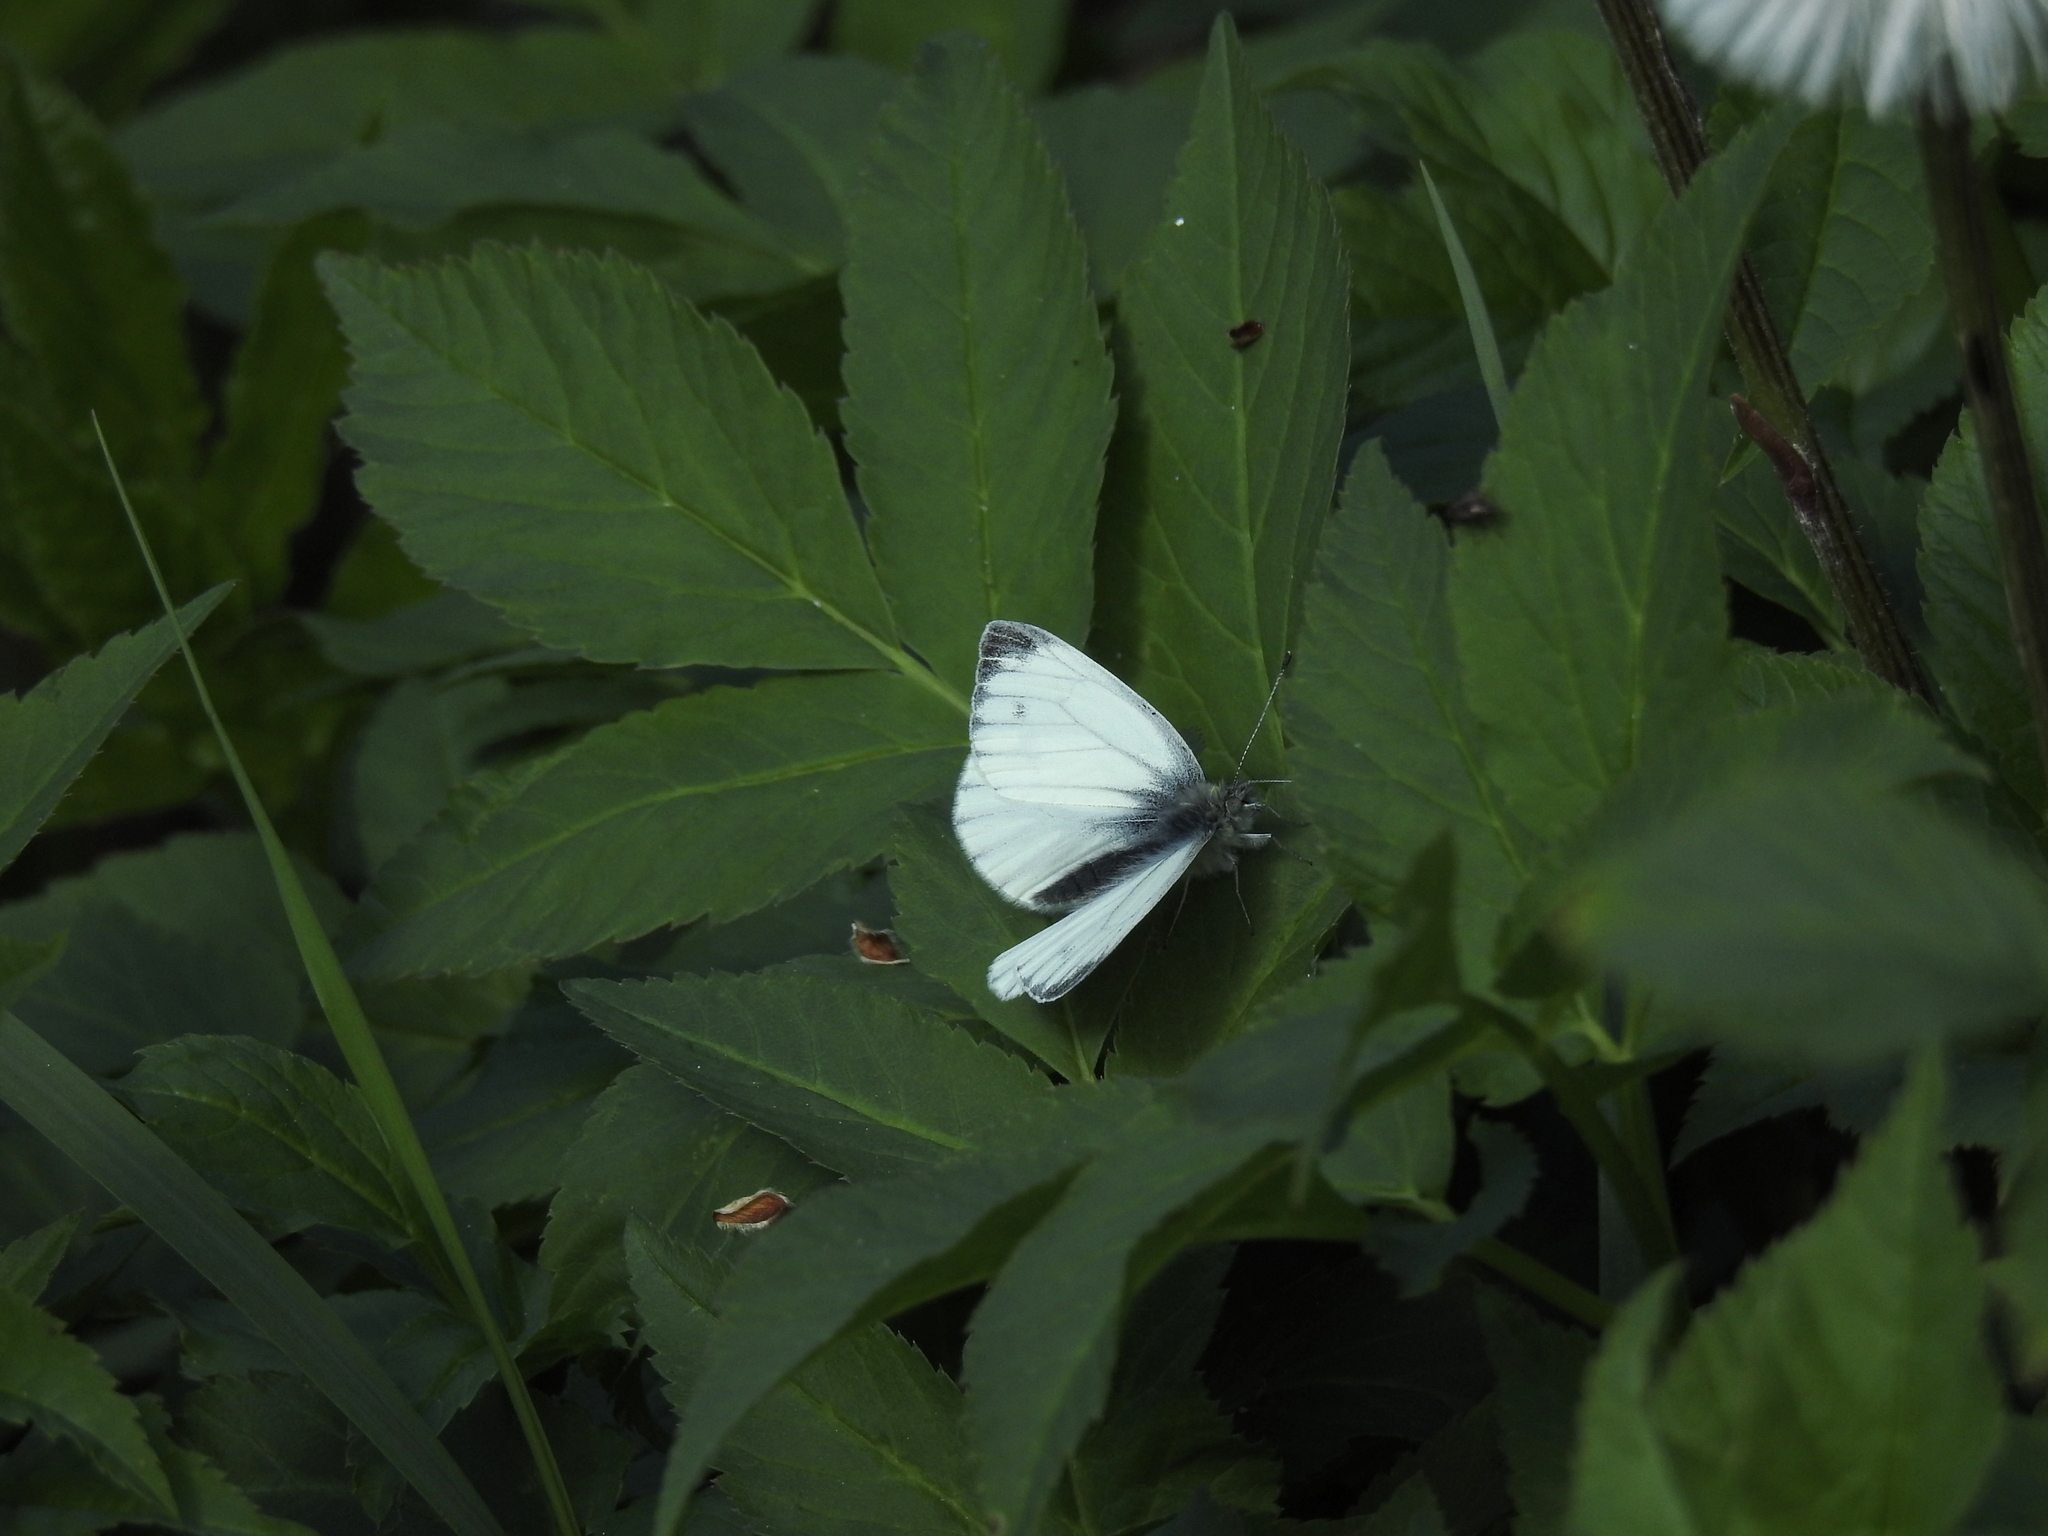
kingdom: Animalia
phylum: Arthropoda
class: Insecta
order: Lepidoptera
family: Pieridae
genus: Pieris
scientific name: Pieris napi
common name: Green-veined white
